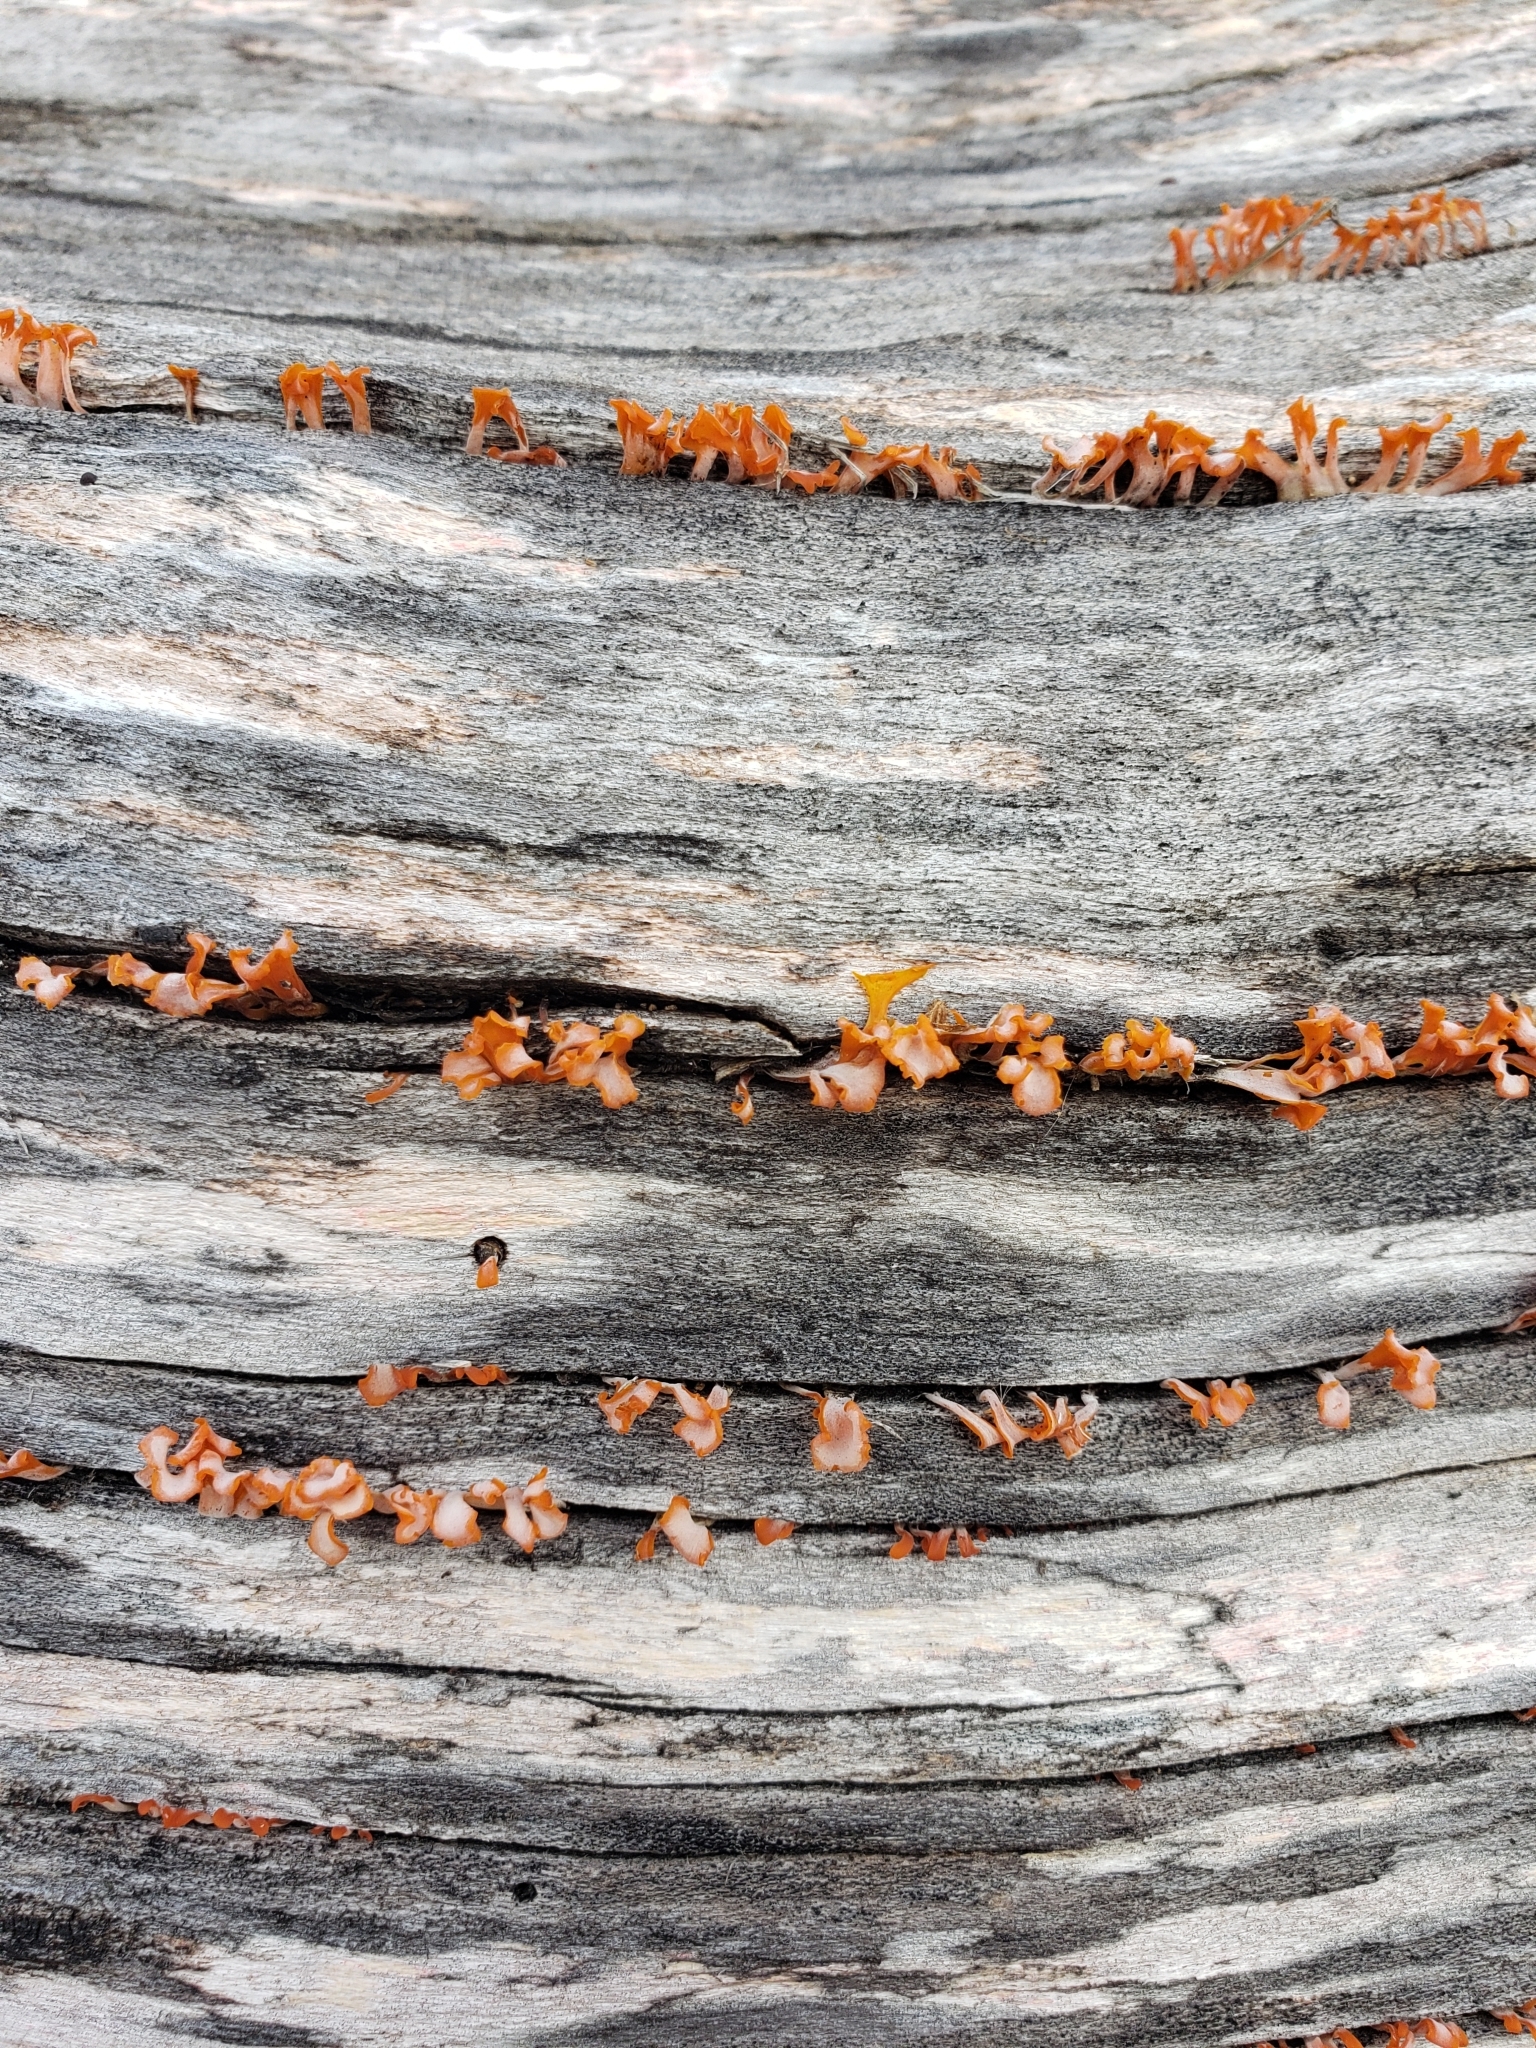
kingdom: Fungi
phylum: Basidiomycota
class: Dacrymycetes
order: Dacrymycetales
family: Dacrymycetaceae
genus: Dacrymyces
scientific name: Dacrymyces spathularius
